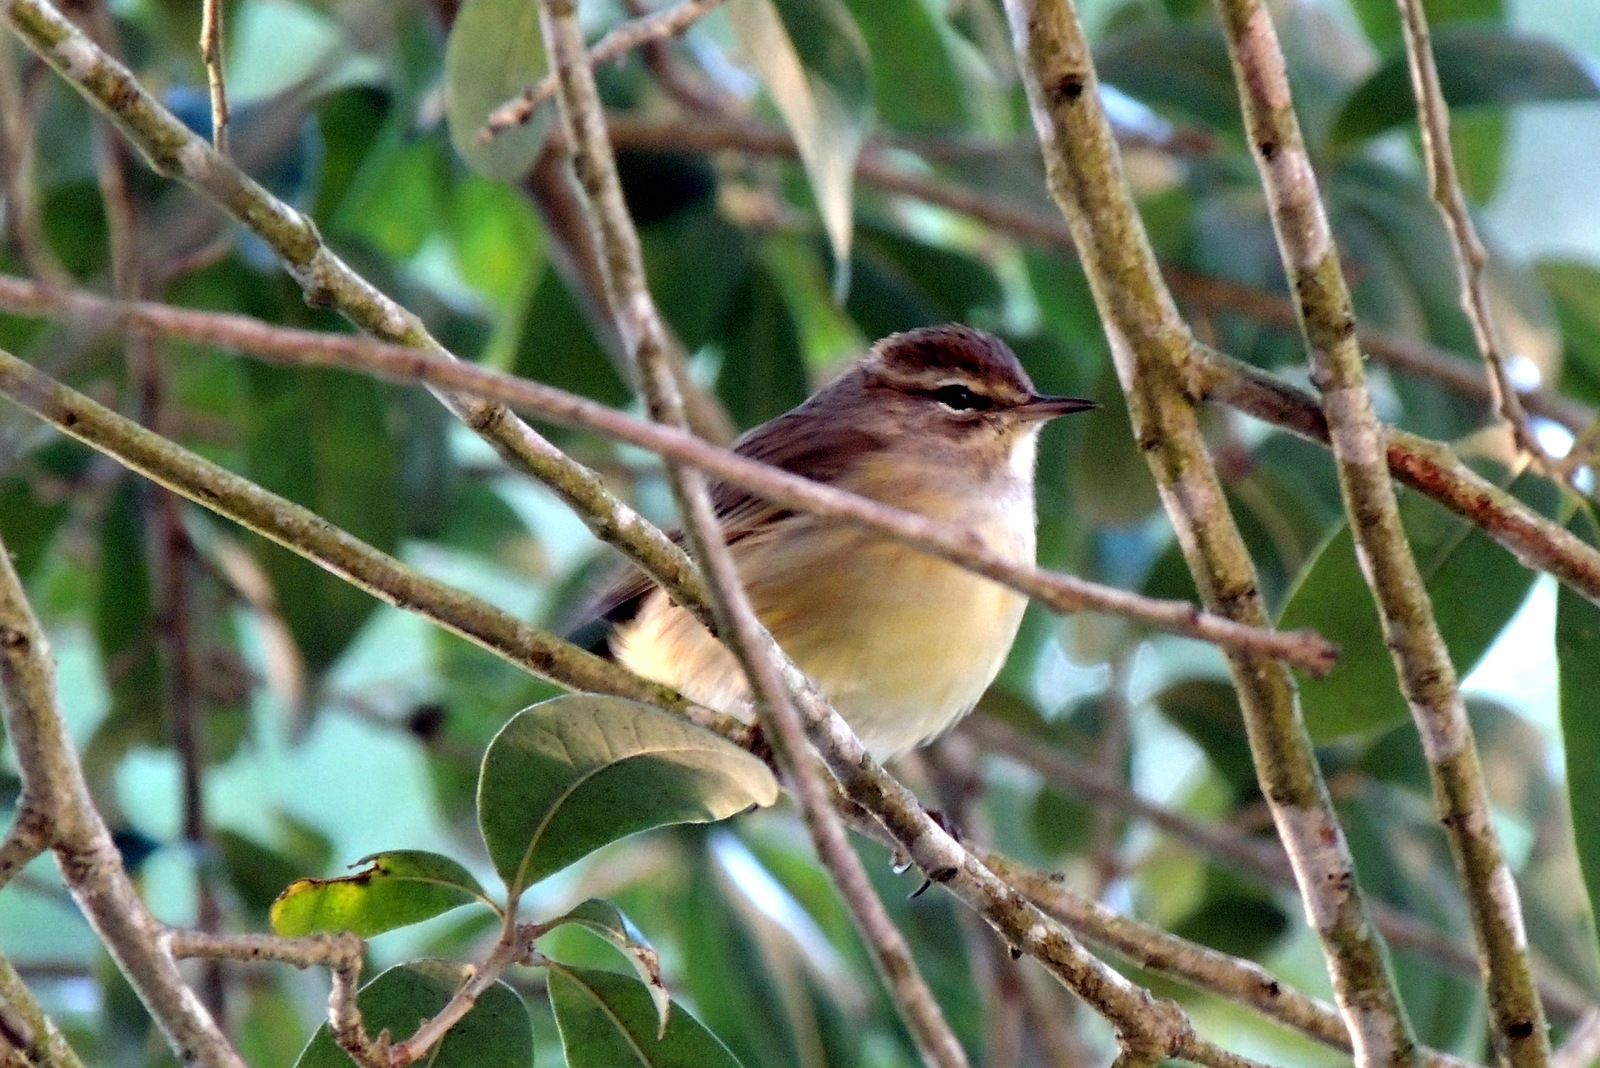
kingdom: Animalia
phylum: Chordata
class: Aves
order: Passeriformes
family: Parulidae
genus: Setophaga
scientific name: Setophaga palmarum
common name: Palm warbler
